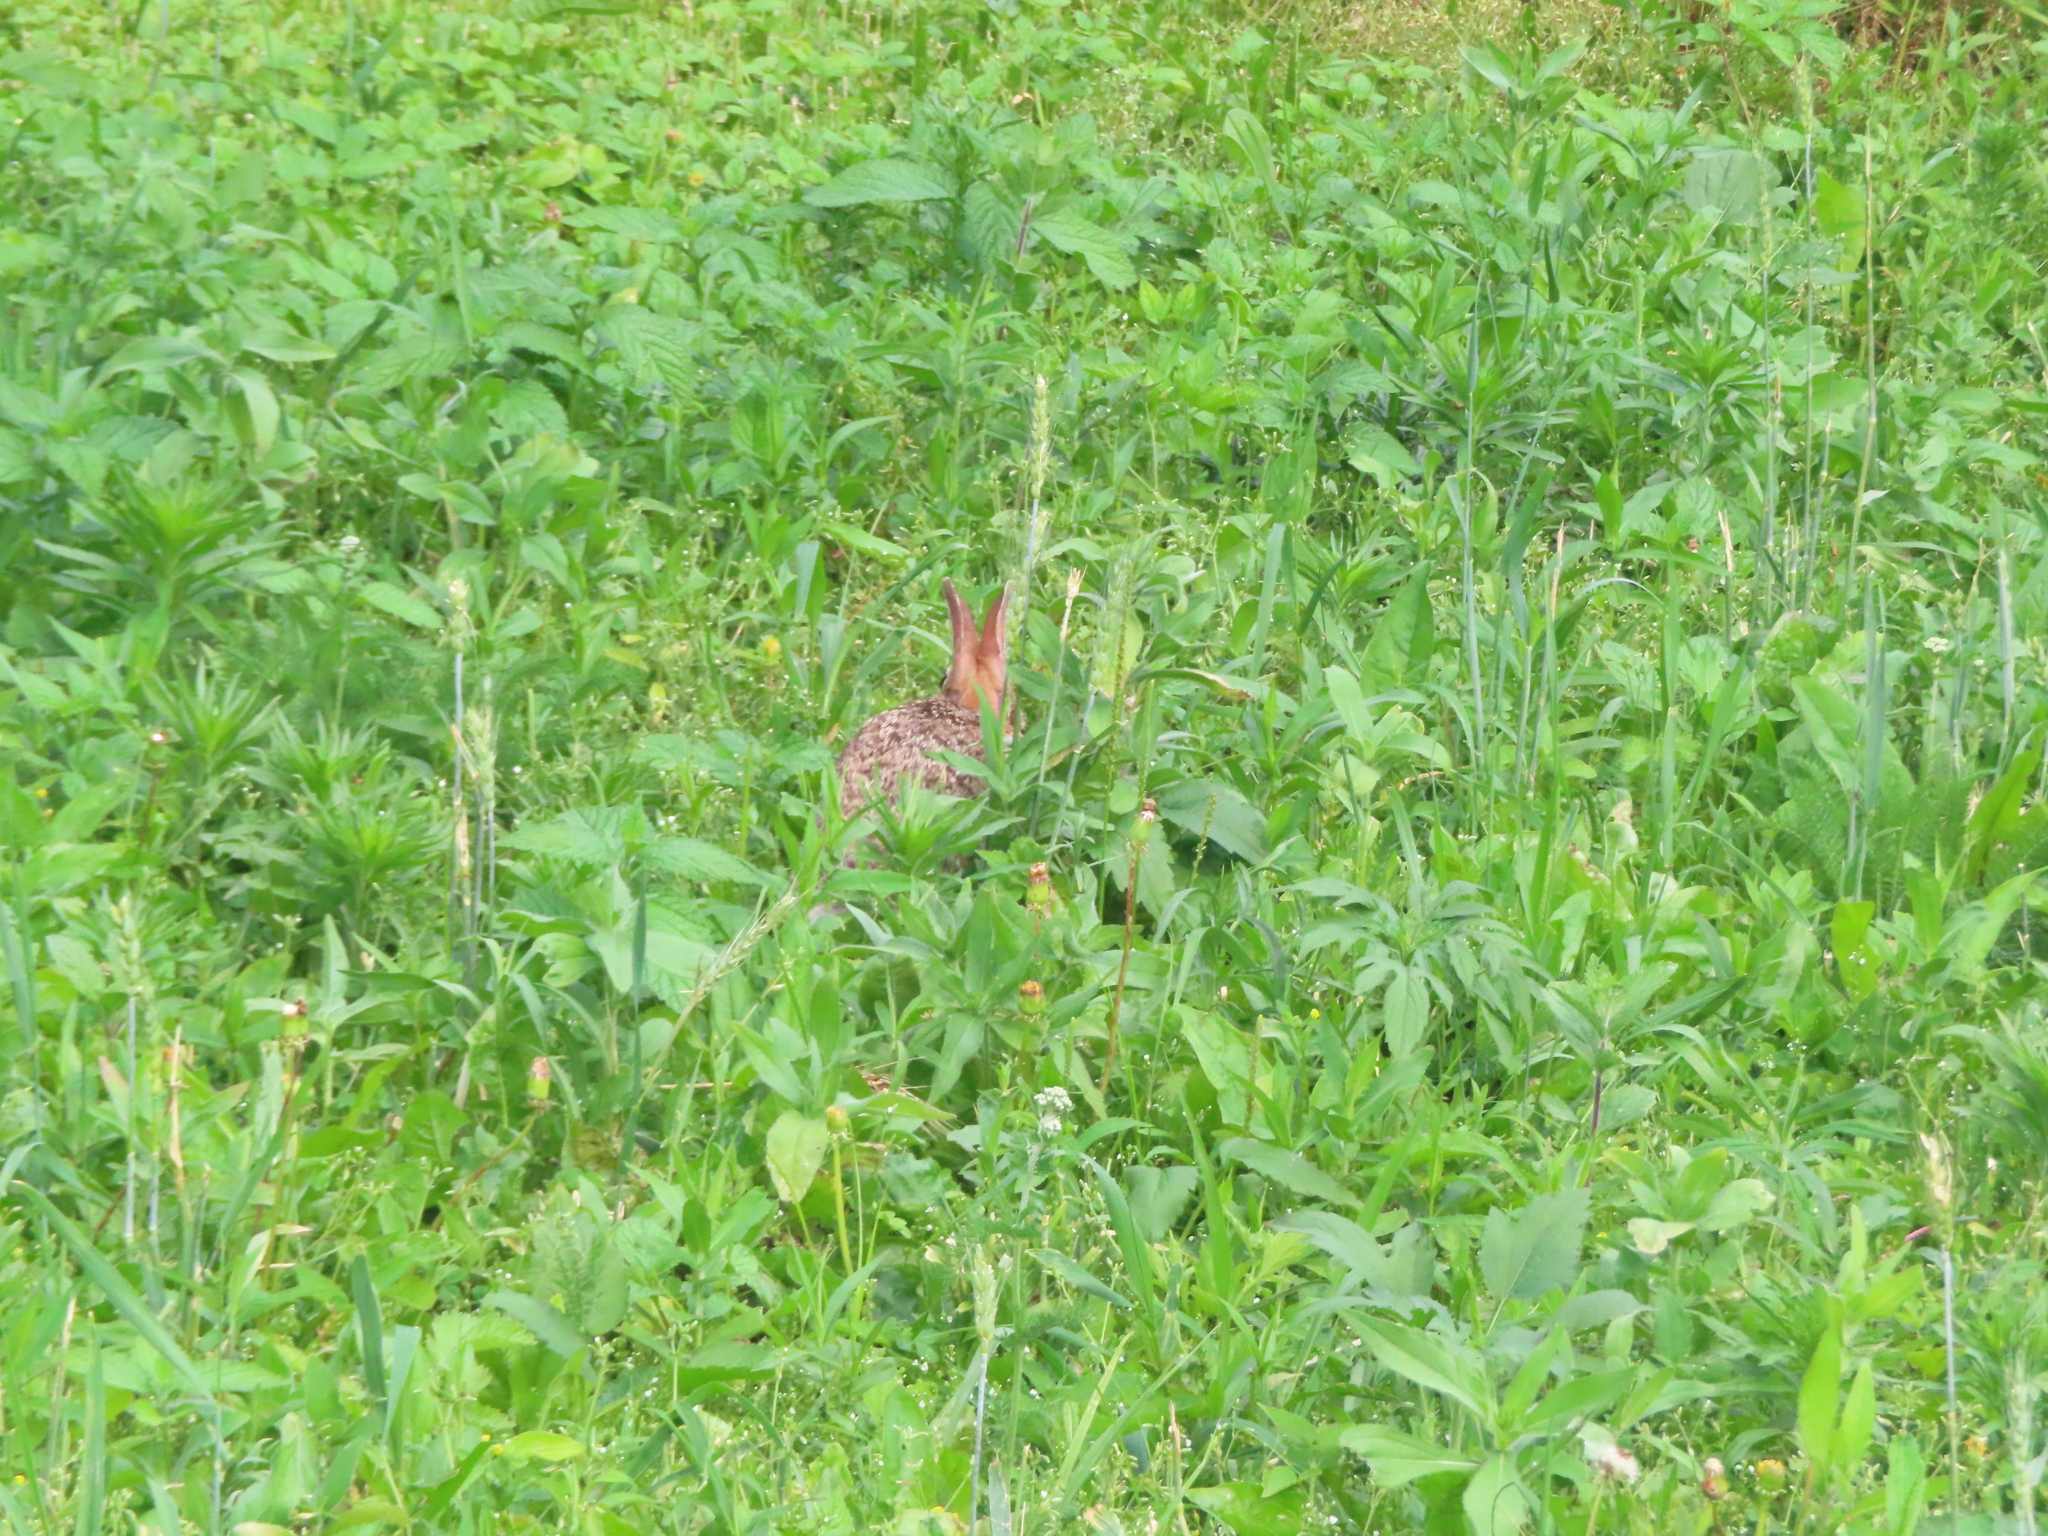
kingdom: Animalia
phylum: Chordata
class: Mammalia
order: Lagomorpha
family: Leporidae
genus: Sylvilagus
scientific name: Sylvilagus floridanus
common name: Eastern cottontail
